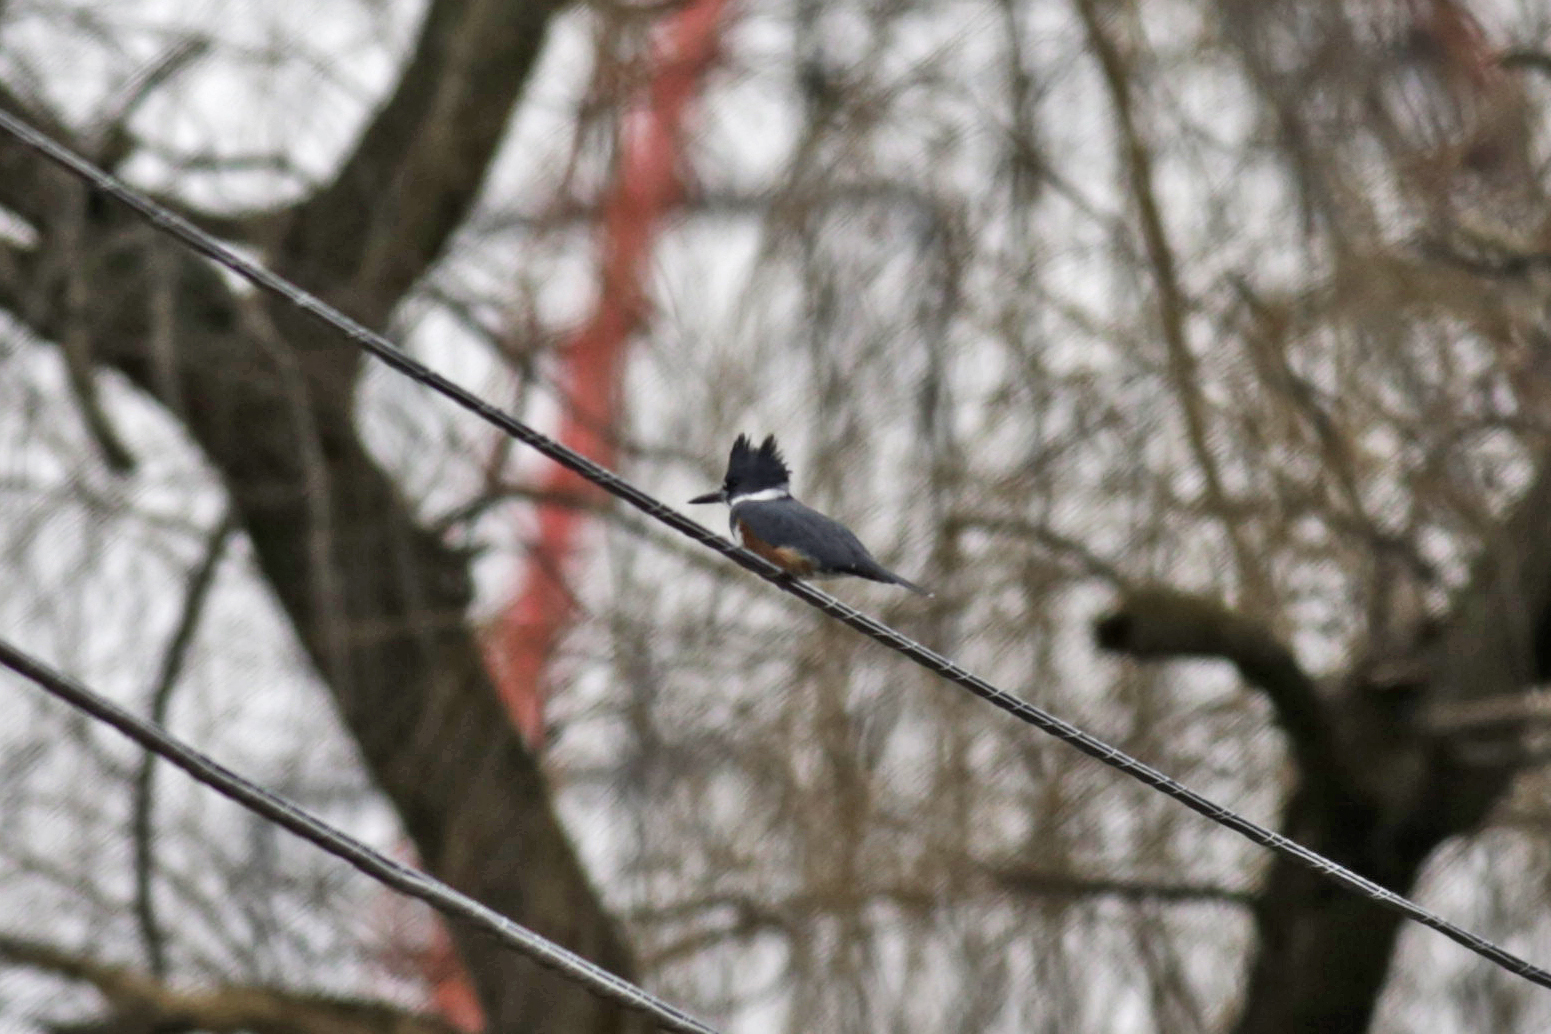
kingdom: Animalia
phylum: Chordata
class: Aves
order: Coraciiformes
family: Alcedinidae
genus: Megaceryle
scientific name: Megaceryle alcyon
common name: Belted kingfisher
